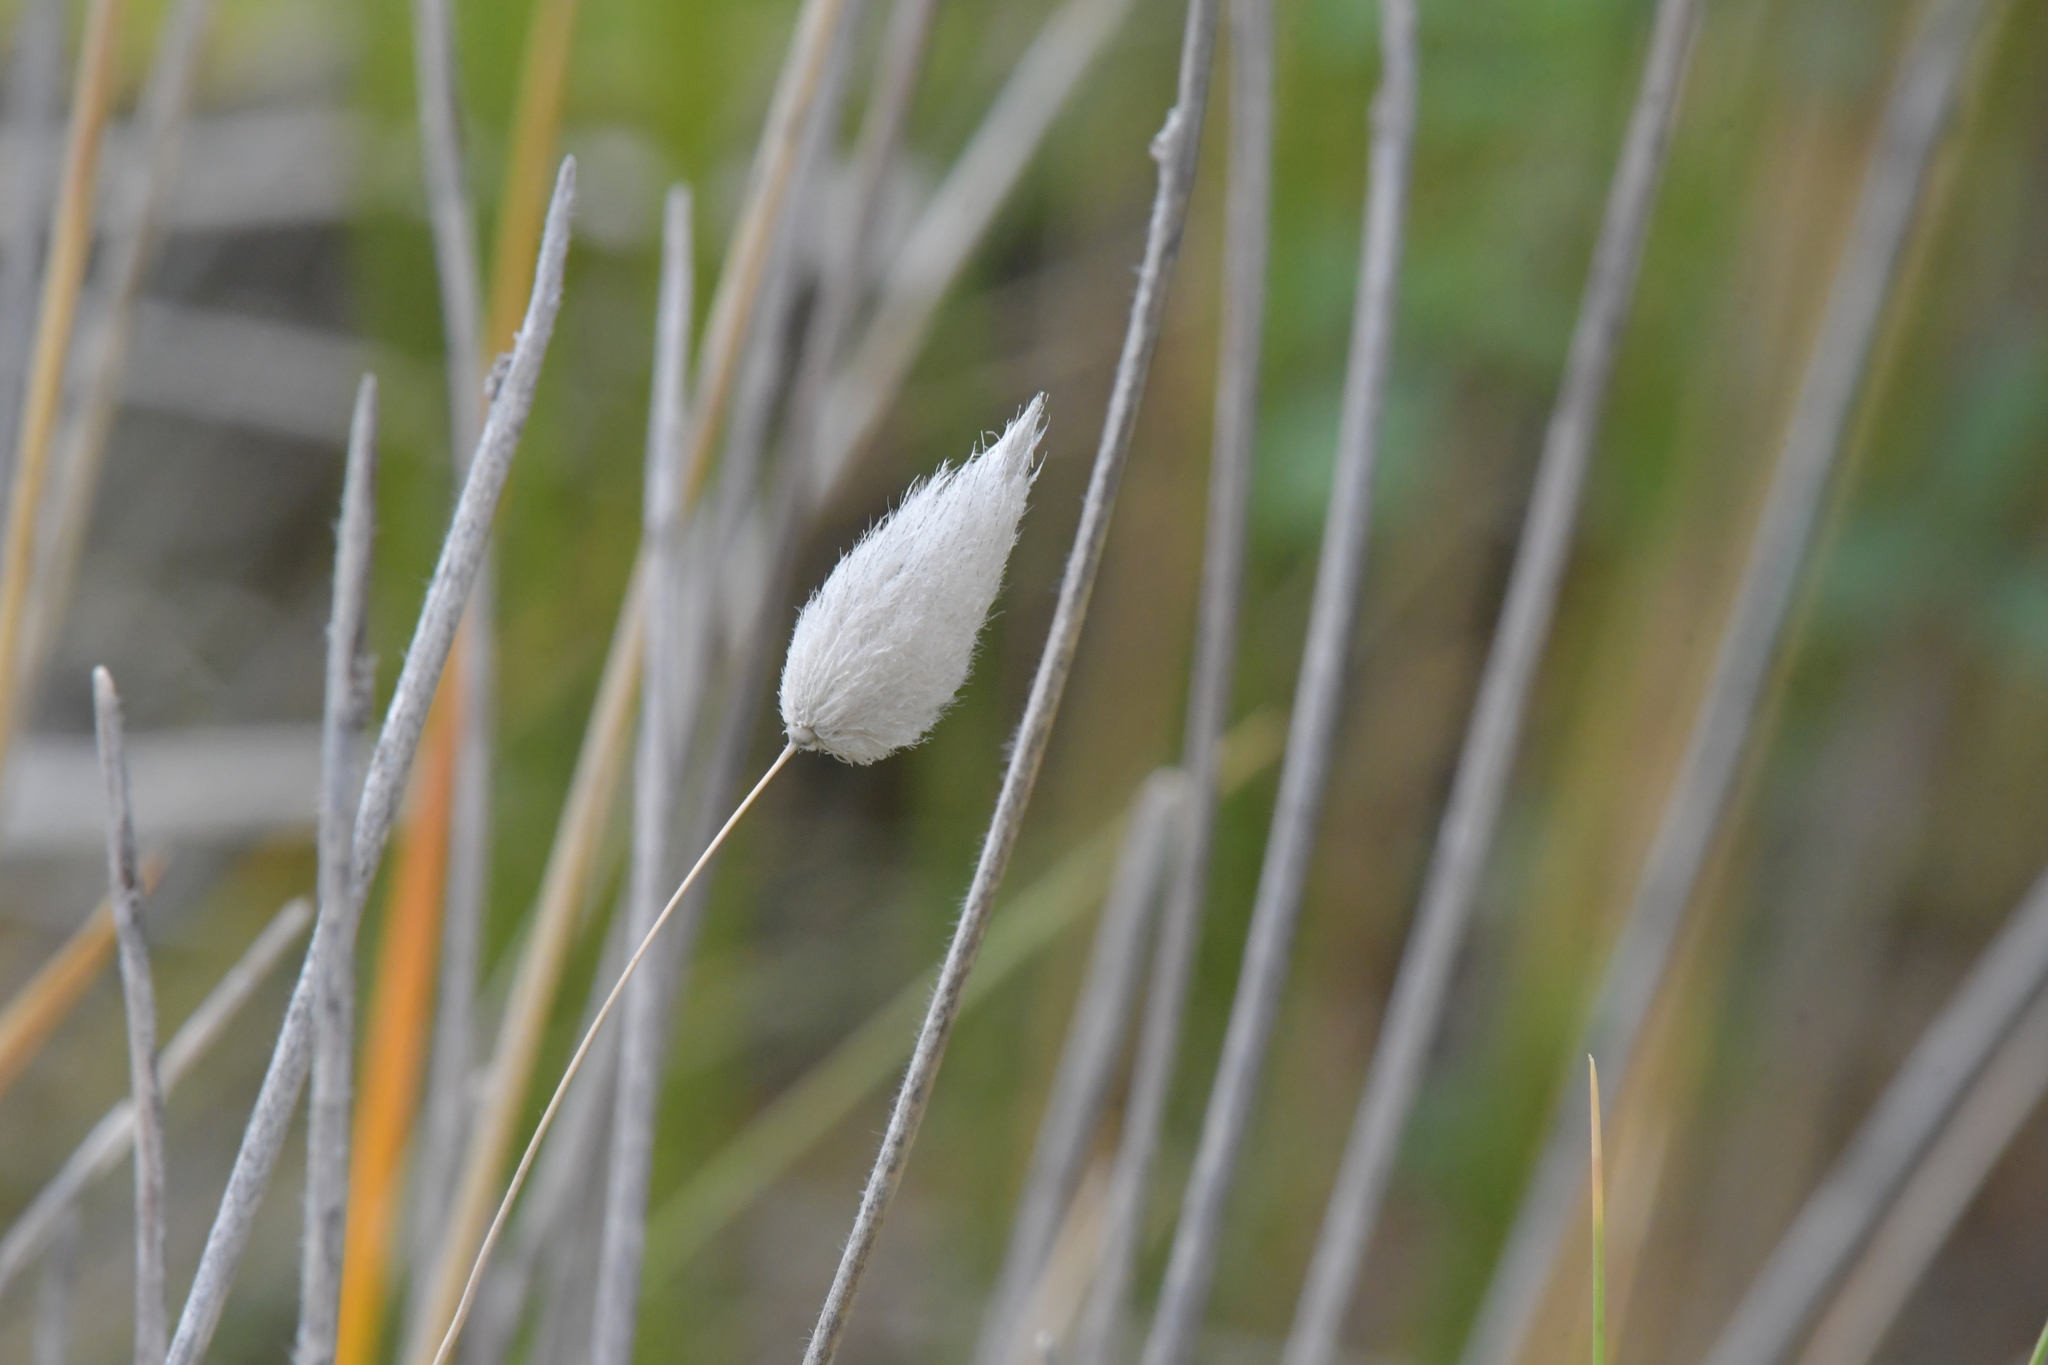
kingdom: Plantae
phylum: Tracheophyta
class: Liliopsida
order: Poales
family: Poaceae
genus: Lagurus
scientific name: Lagurus ovatus
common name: Hare's-tail
